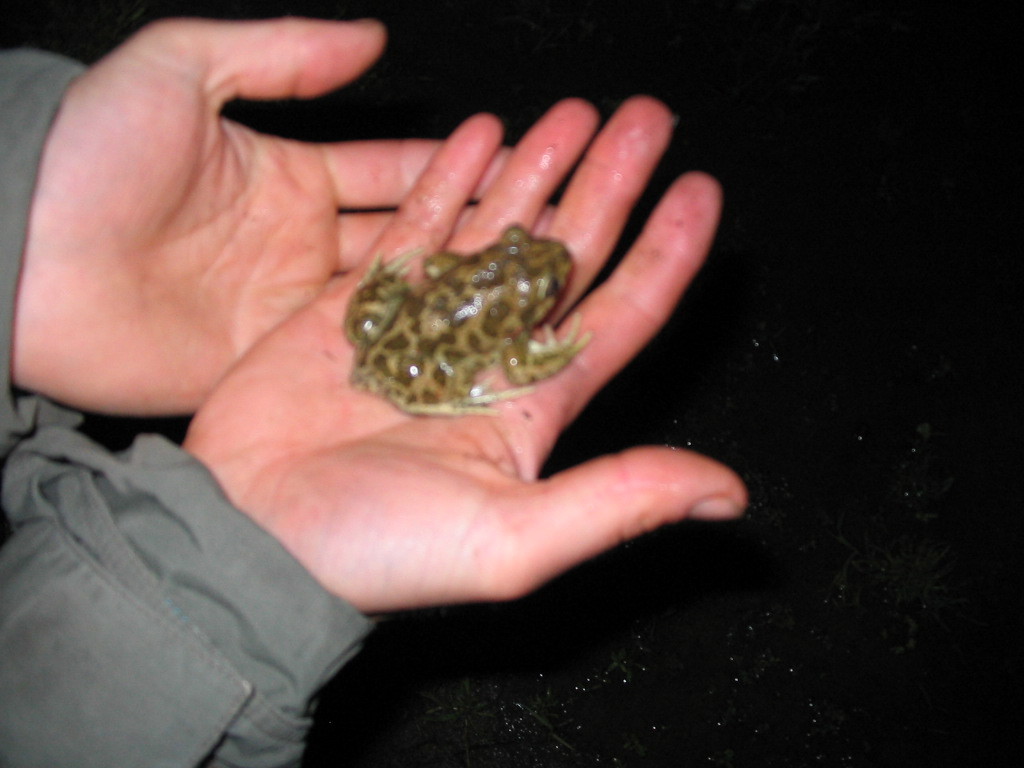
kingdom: Animalia
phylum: Chordata
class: Amphibia
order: Anura
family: Pelobatidae
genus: Pelobates
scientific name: Pelobates balcanicus
